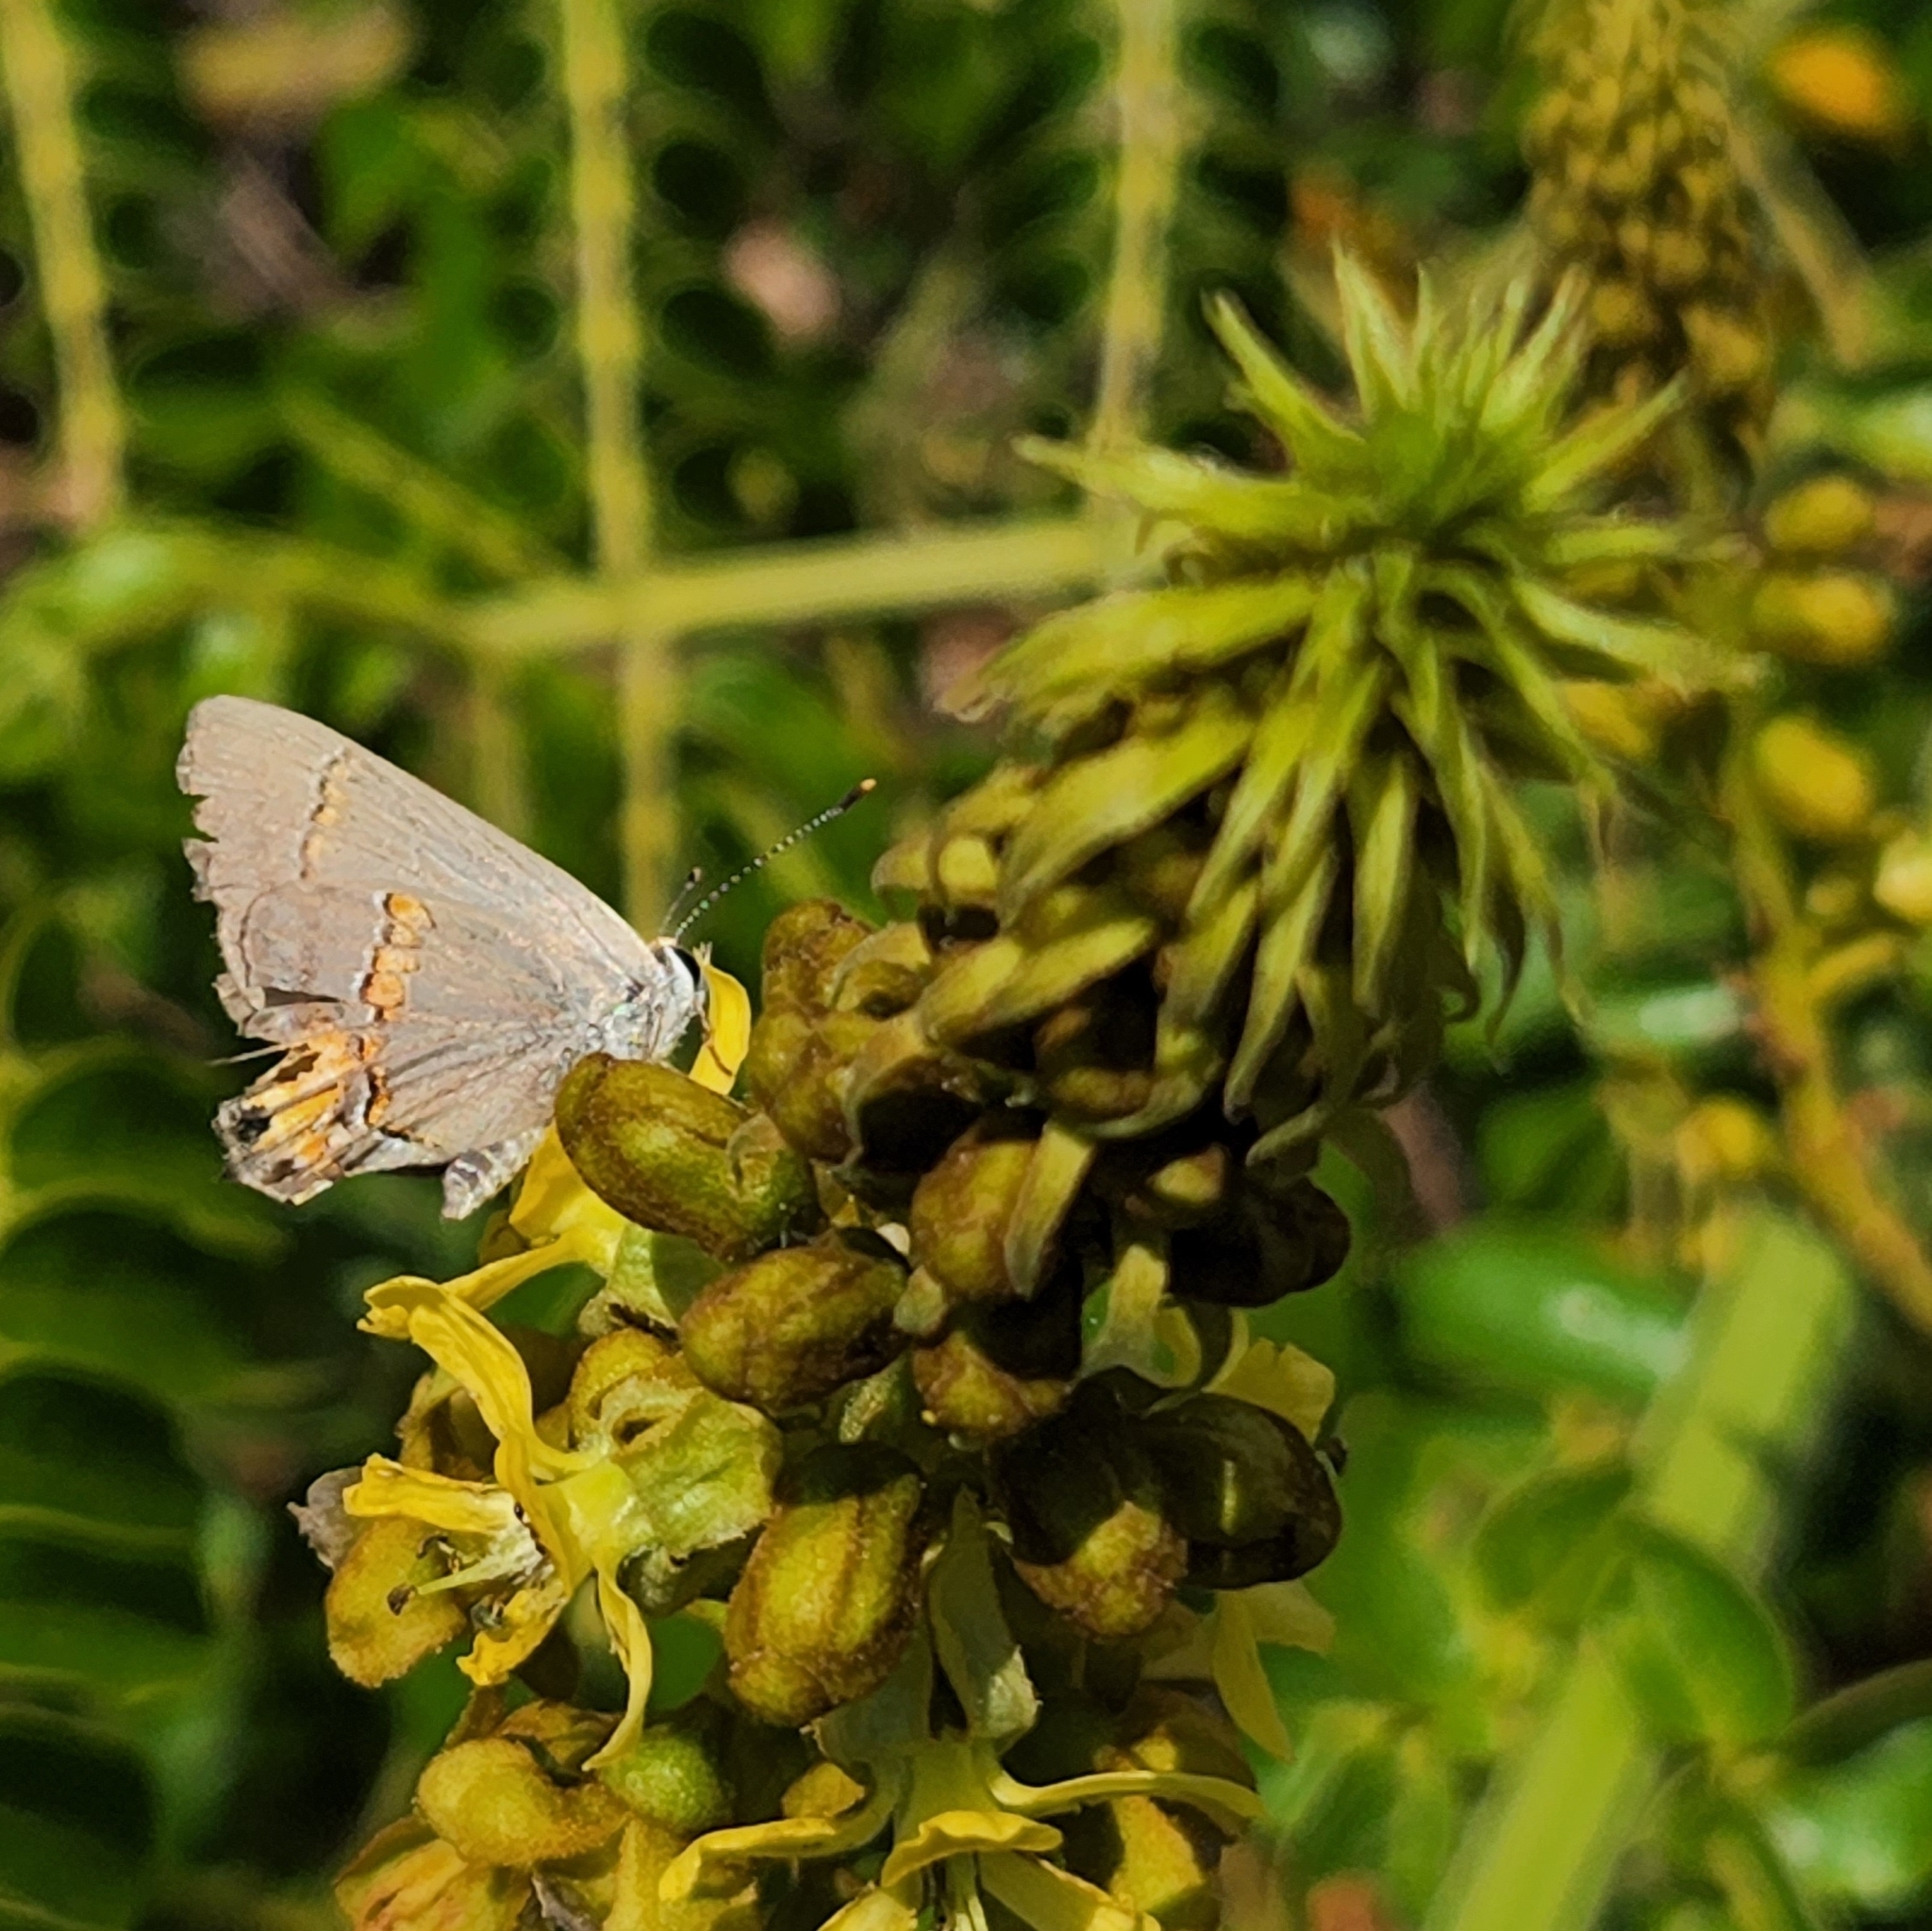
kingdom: Animalia
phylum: Arthropoda
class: Insecta
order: Lepidoptera
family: Lycaenidae
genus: Strymon
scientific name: Strymon melinus
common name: Gray hairstreak
